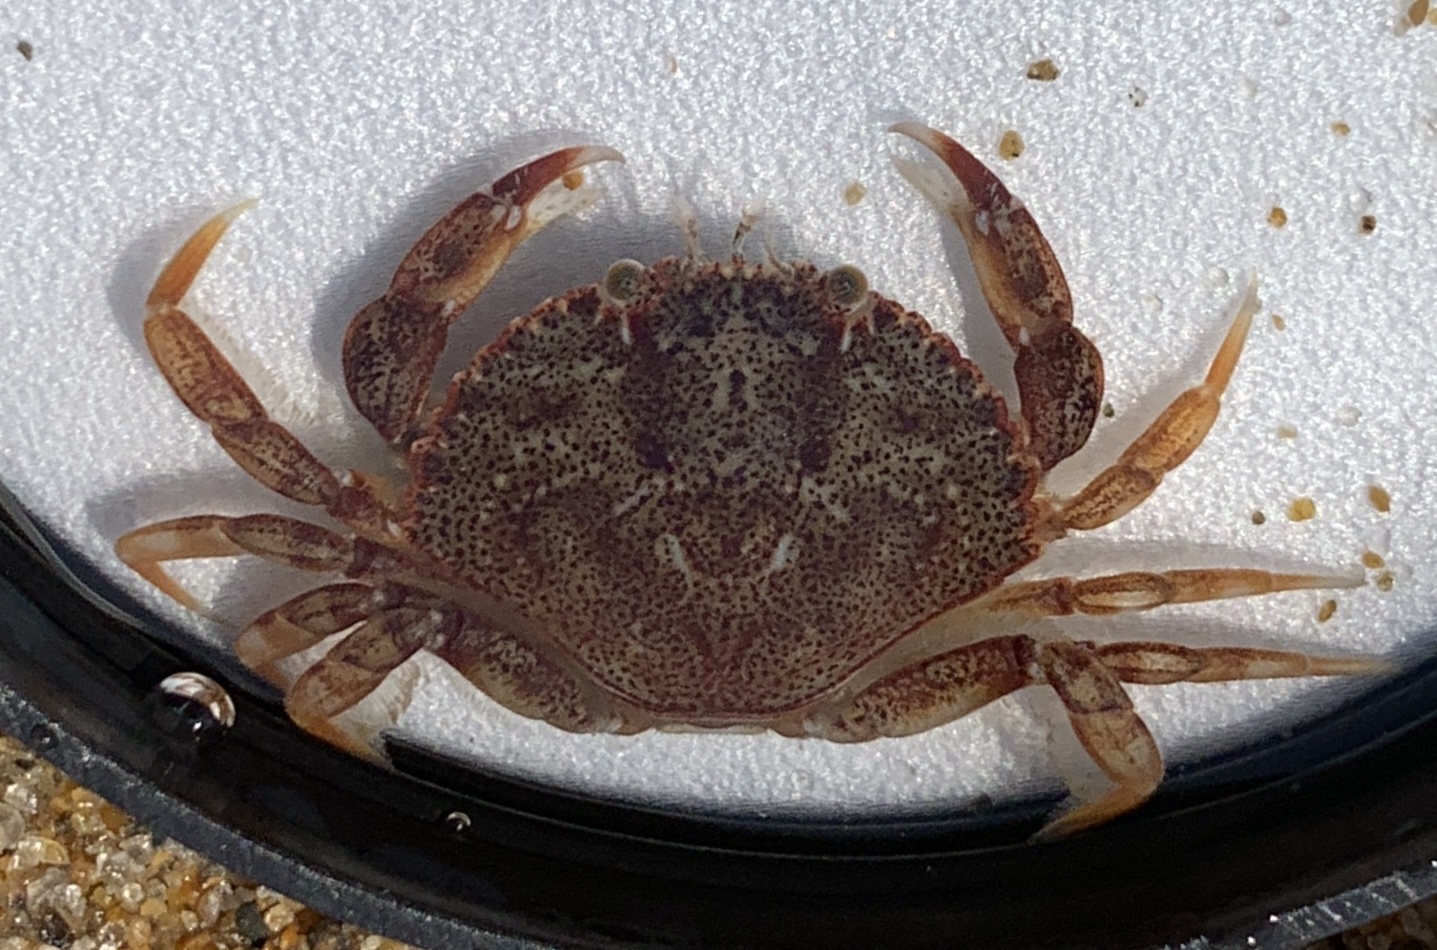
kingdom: Animalia
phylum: Arthropoda
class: Malacostraca
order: Decapoda
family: Cancridae
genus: Cancer
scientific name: Cancer irroratus
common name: Atlantic rock crab
